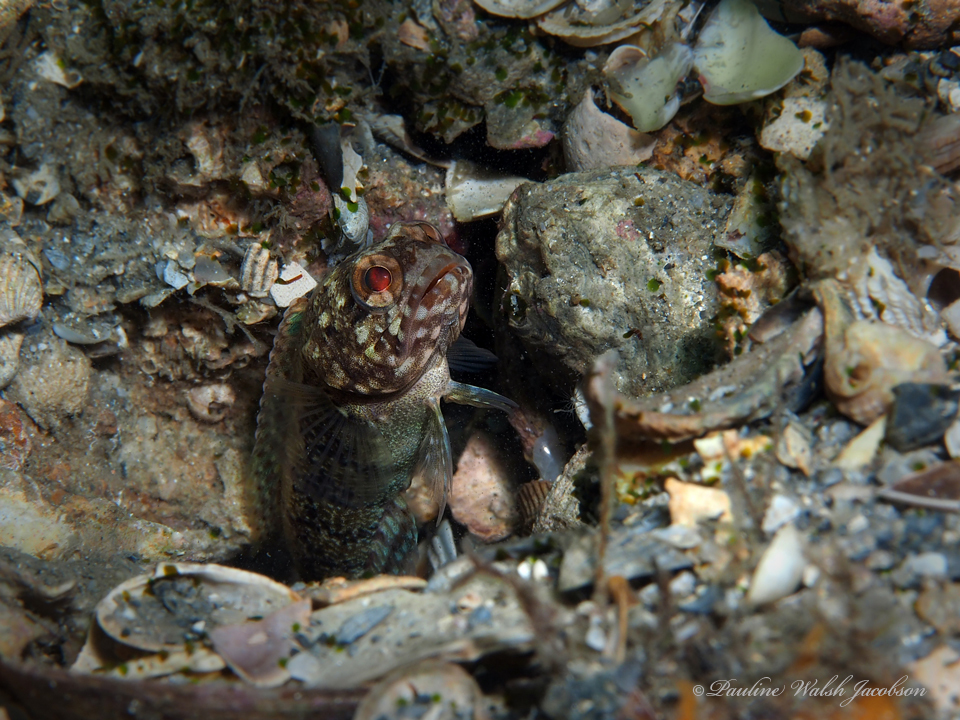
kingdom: Animalia
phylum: Chordata
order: Perciformes
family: Opistognathidae
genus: Opistognathus
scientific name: Opistognathus whitehursti
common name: Dusky jawfish
